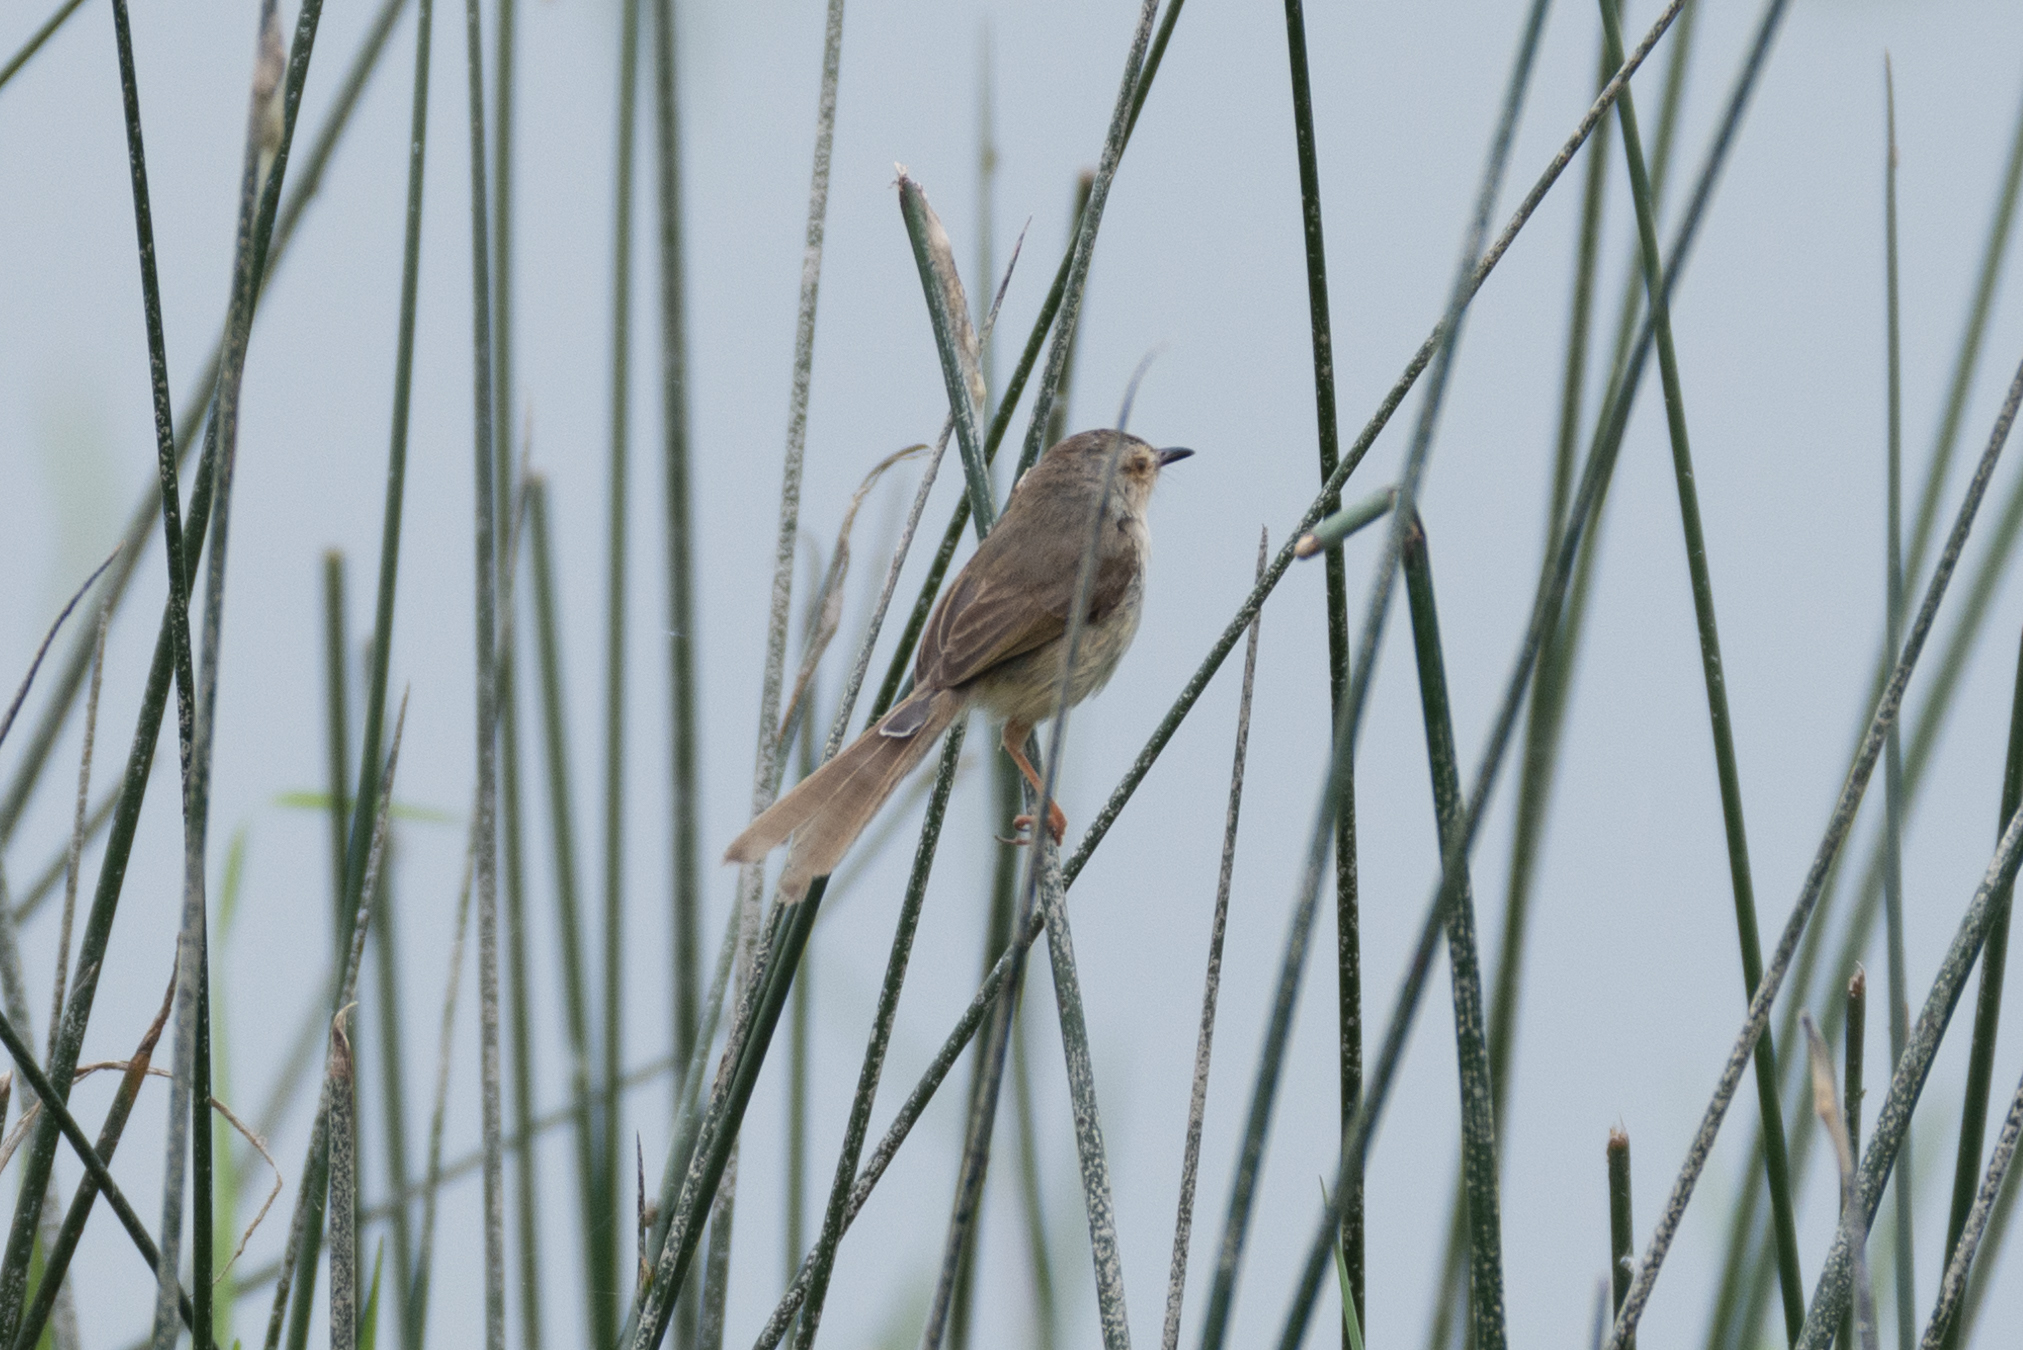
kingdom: Animalia
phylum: Chordata
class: Aves
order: Passeriformes
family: Cisticolidae
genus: Prinia
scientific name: Prinia inornata
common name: Plain prinia
